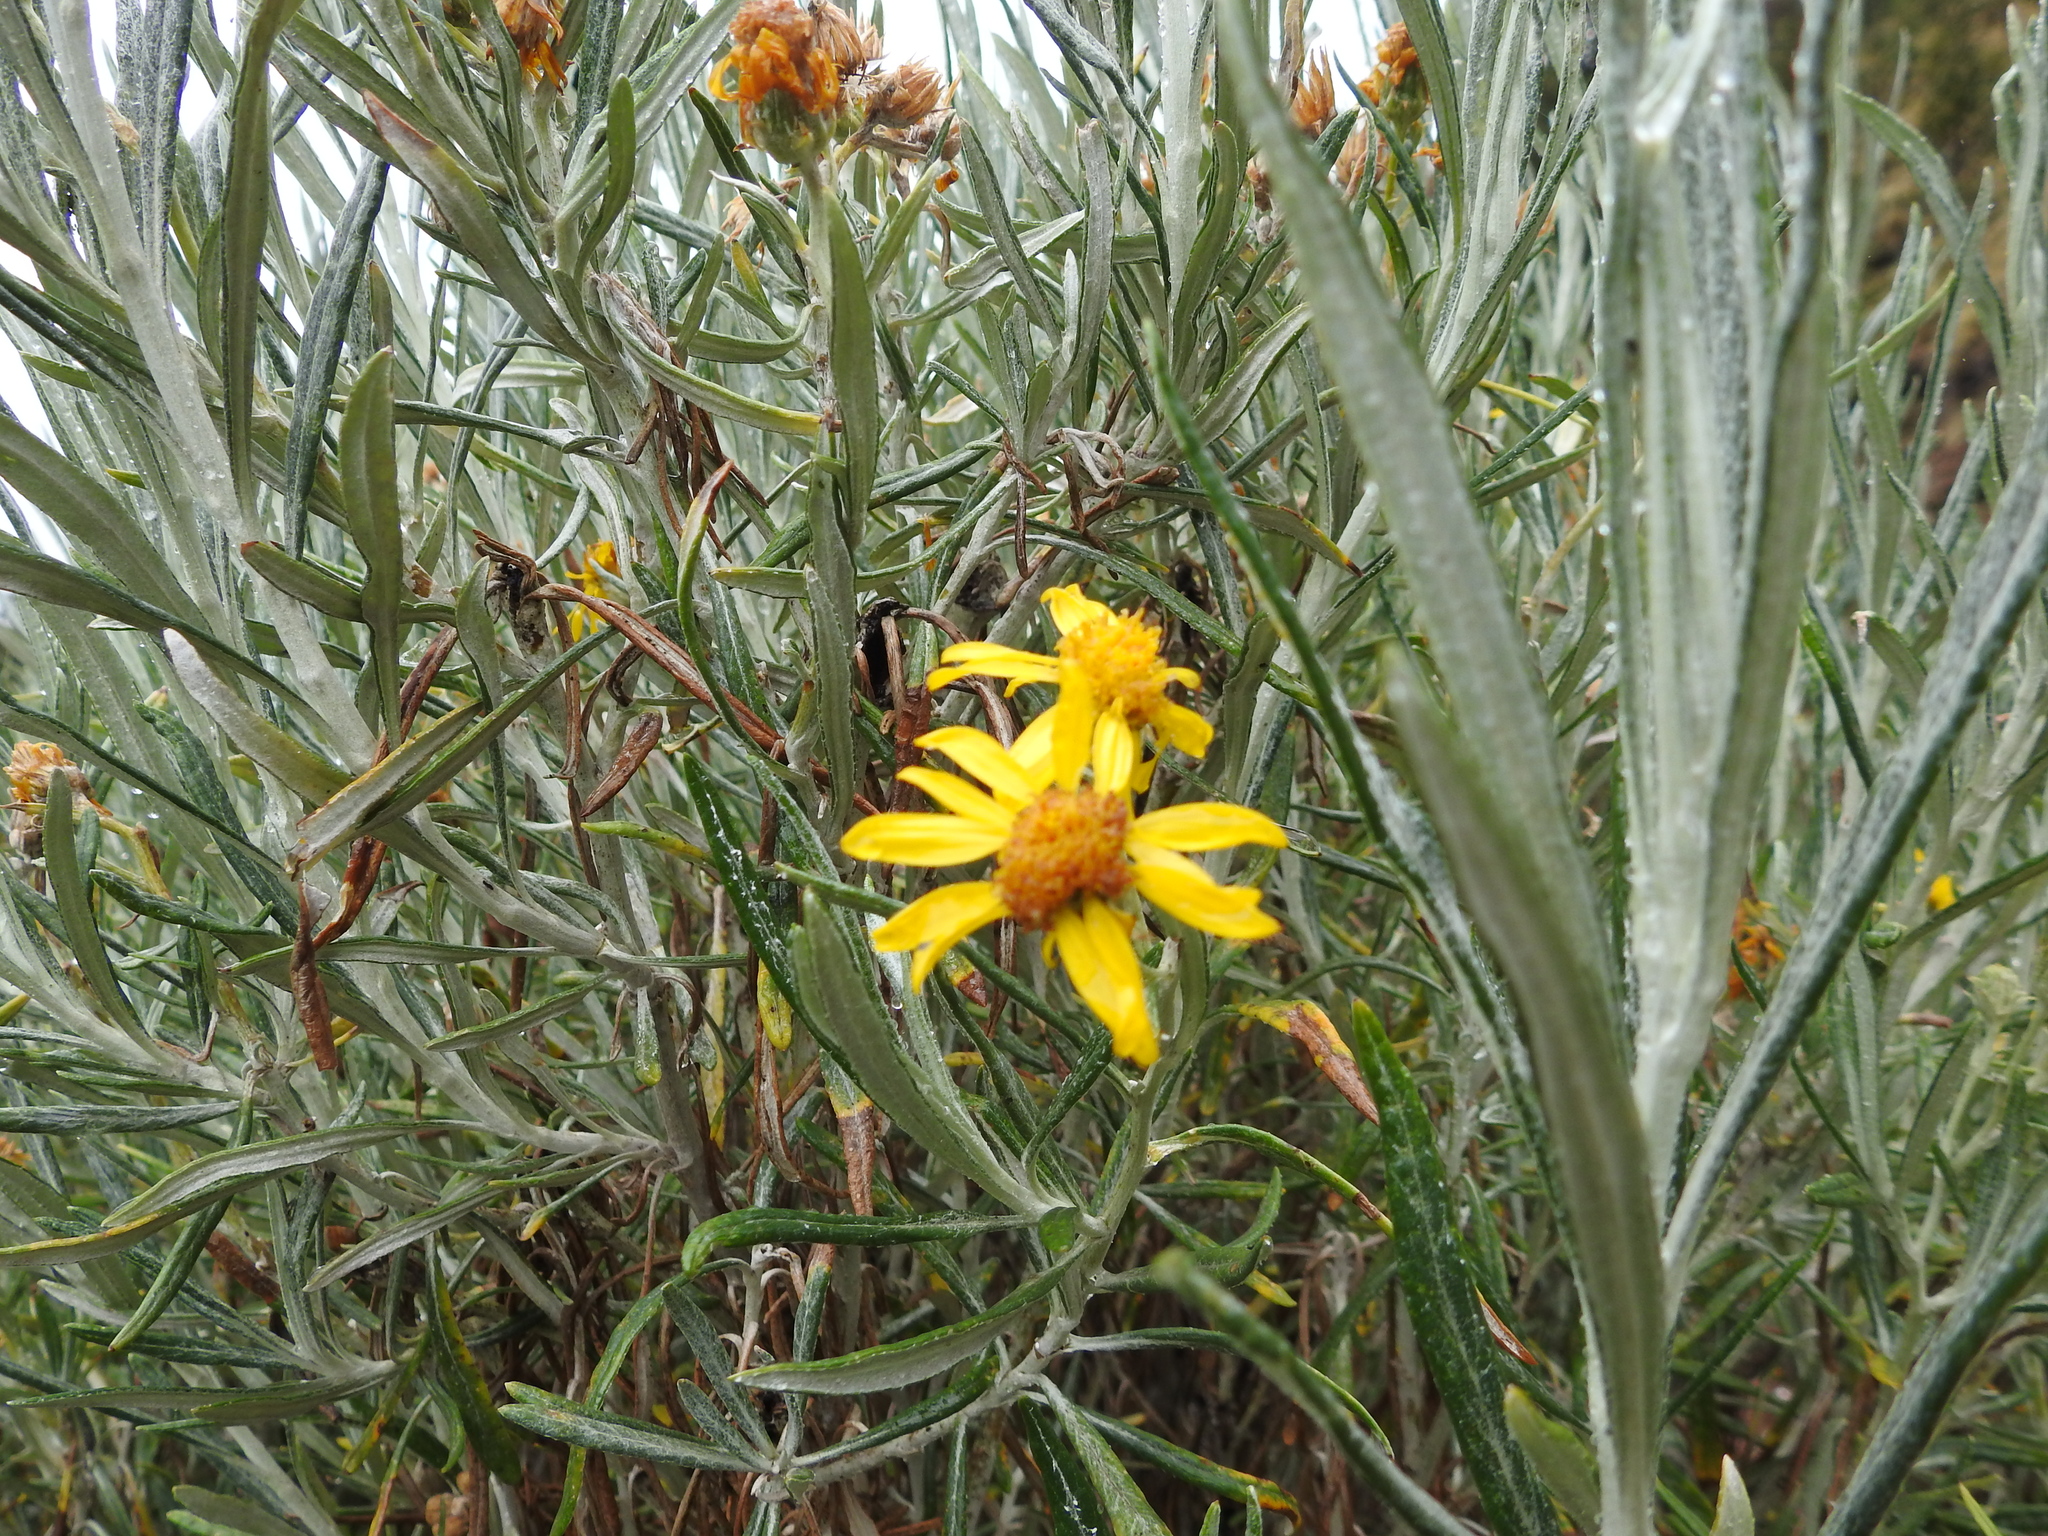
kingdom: Plantae
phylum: Tracheophyta
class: Magnoliopsida
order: Asterales
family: Asteraceae
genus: Senecio
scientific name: Senecio cinerarioides
